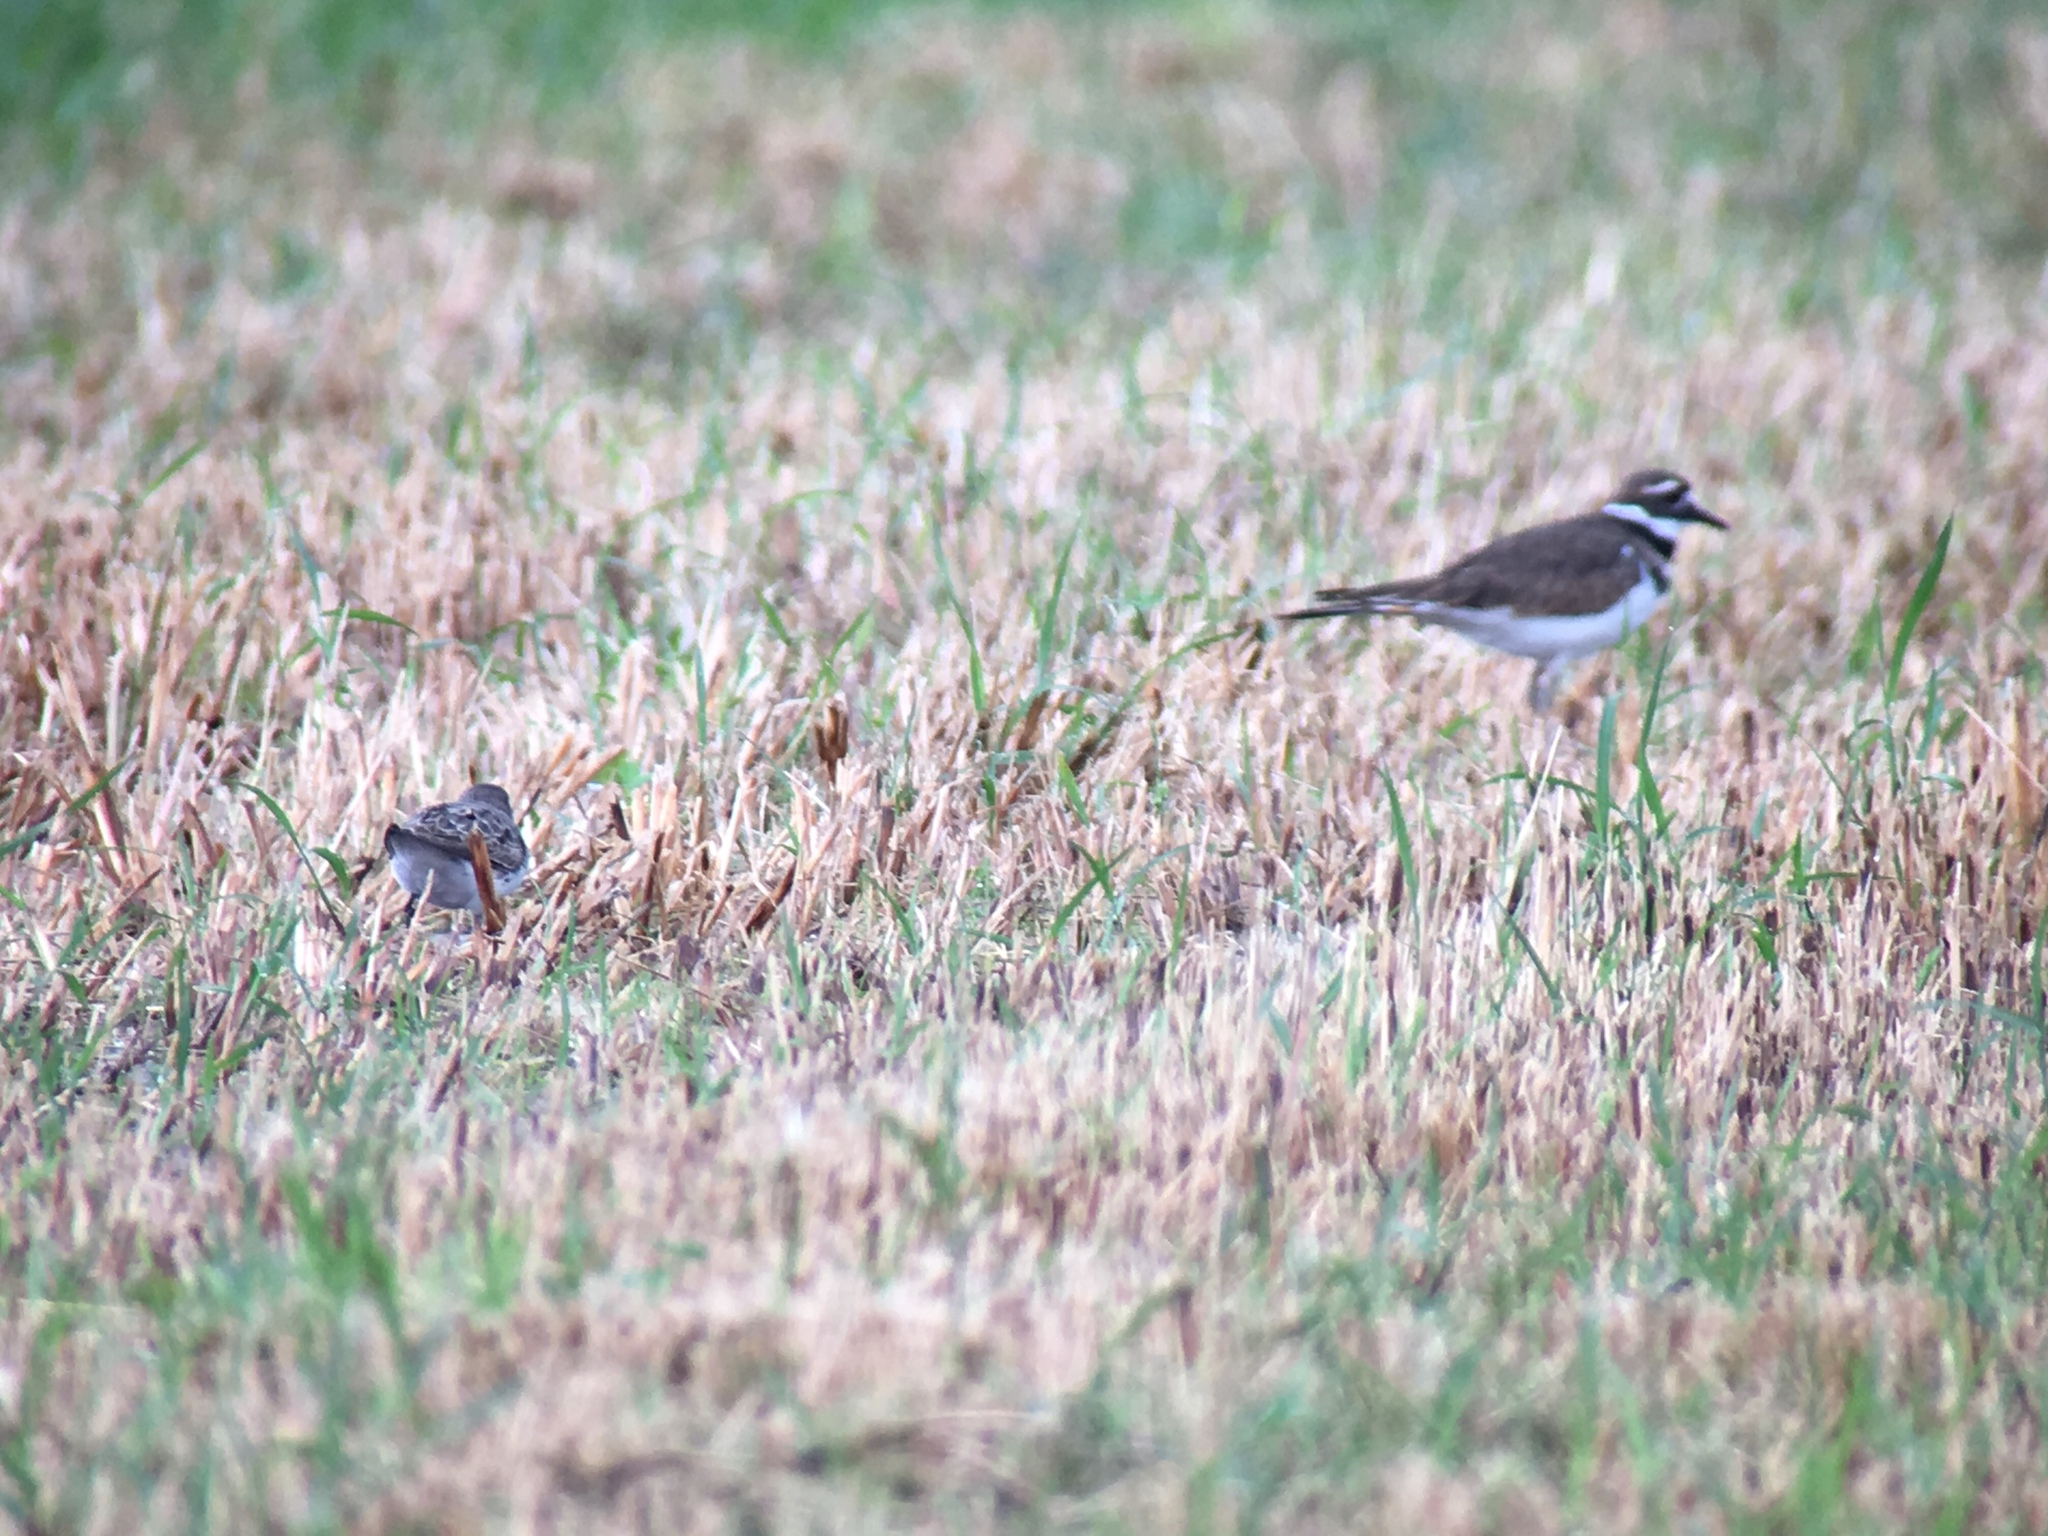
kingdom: Animalia
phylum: Chordata
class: Aves
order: Charadriiformes
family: Charadriidae
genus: Charadrius
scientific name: Charadrius vociferus
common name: Killdeer
